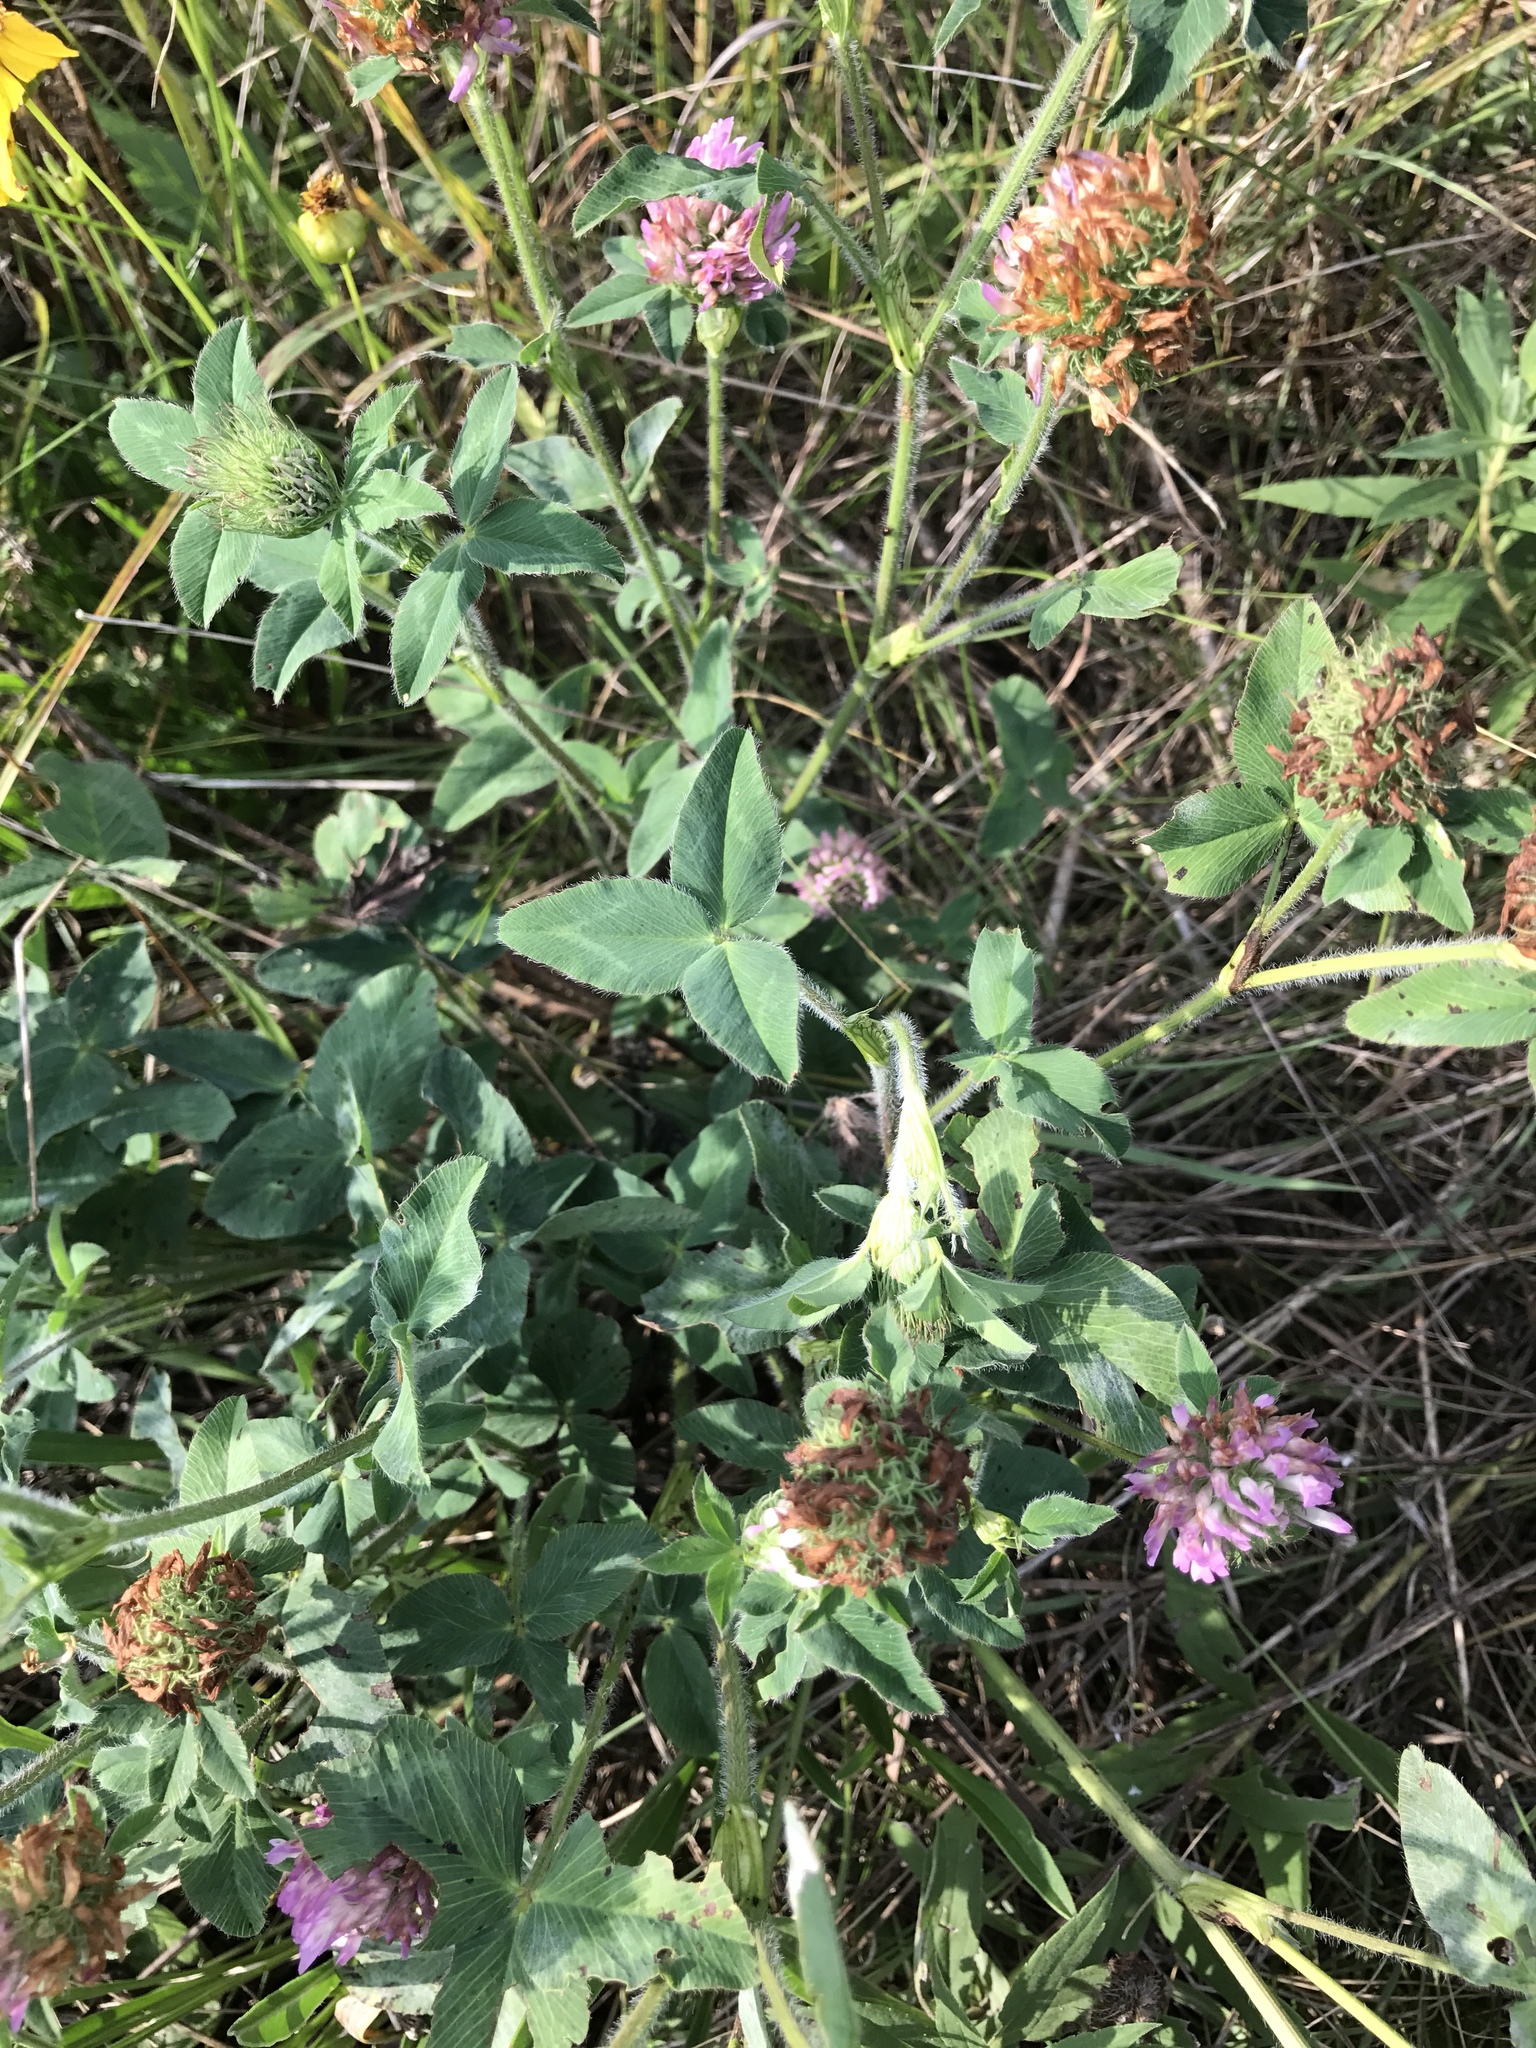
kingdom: Plantae
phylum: Tracheophyta
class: Magnoliopsida
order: Fabales
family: Fabaceae
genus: Trifolium
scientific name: Trifolium pratense
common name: Red clover
